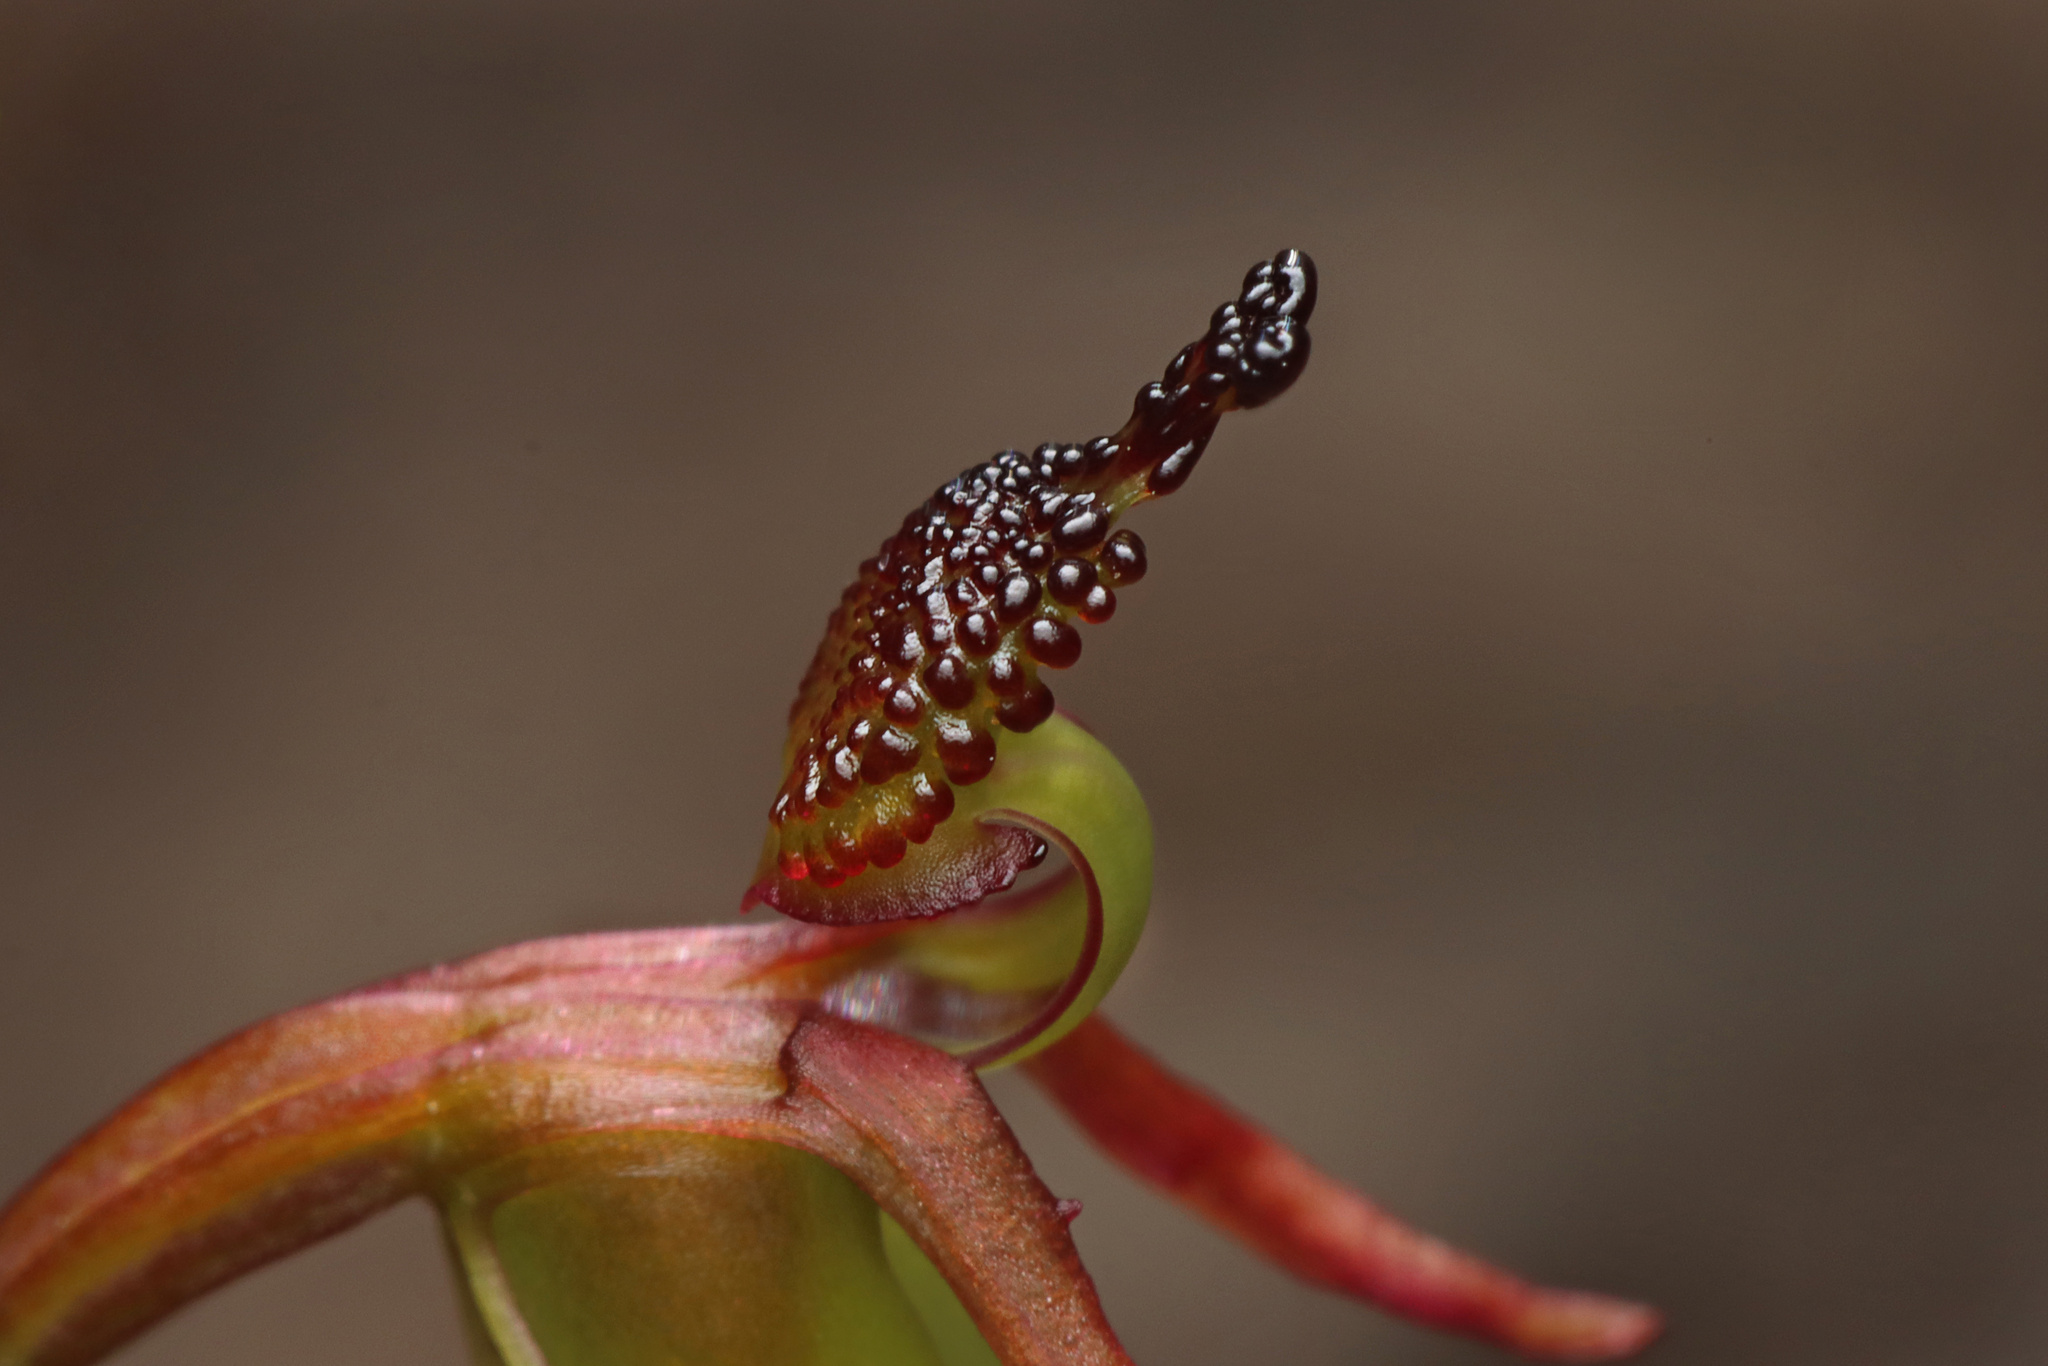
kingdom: Plantae
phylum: Tracheophyta
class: Liliopsida
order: Asparagales
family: Orchidaceae
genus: Caleana
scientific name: Caleana minor
